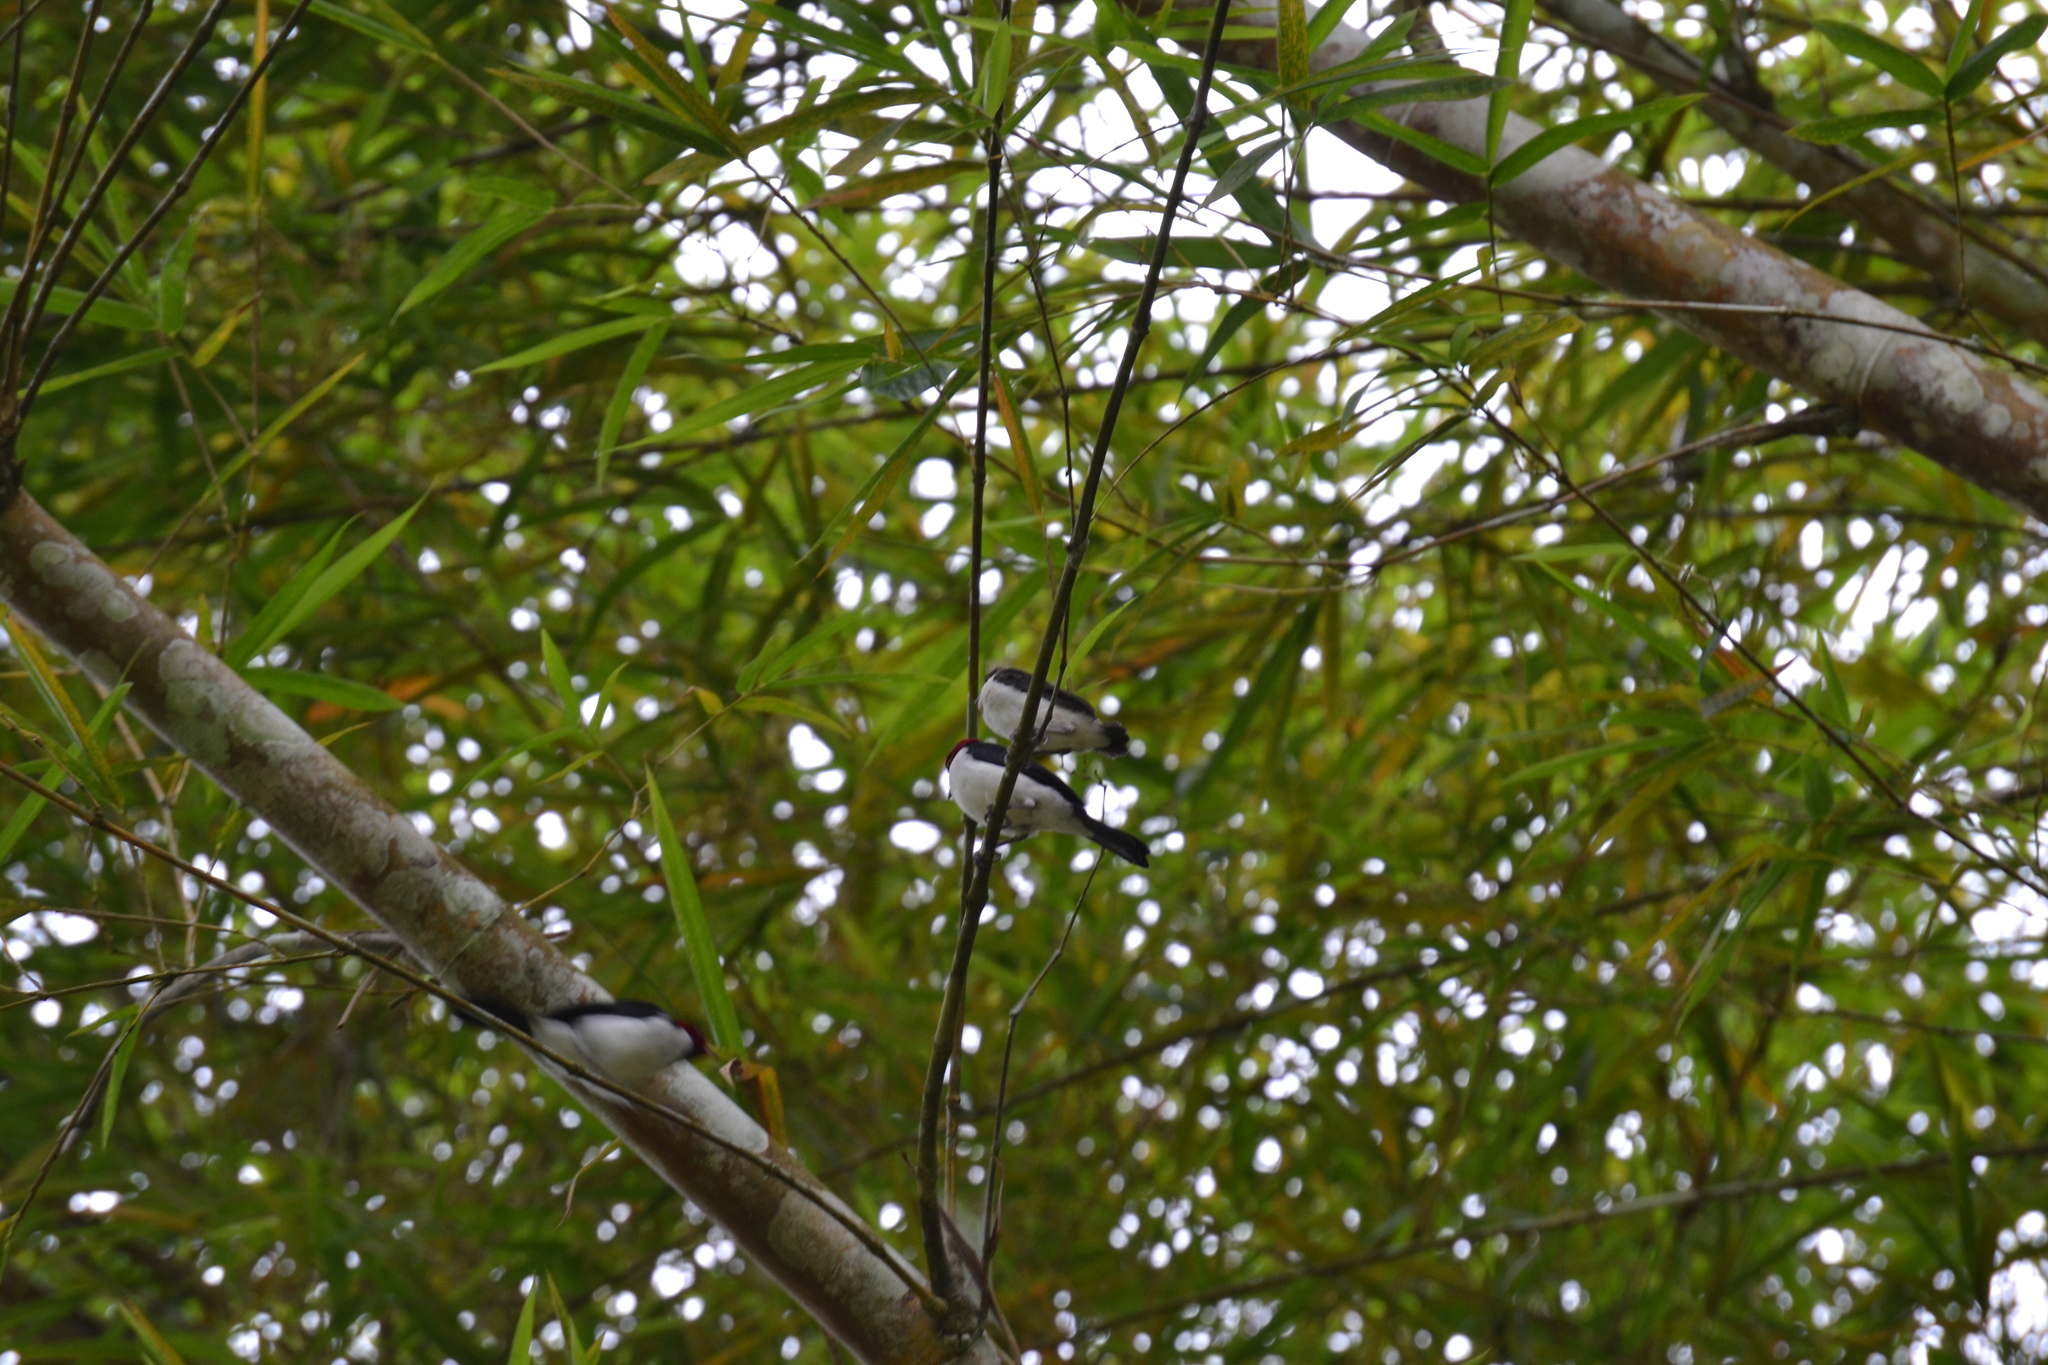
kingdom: Animalia
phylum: Chordata
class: Aves
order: Passeriformes
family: Thraupidae
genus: Paroaria
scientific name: Paroaria gularis
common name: Red-capped cardinal
